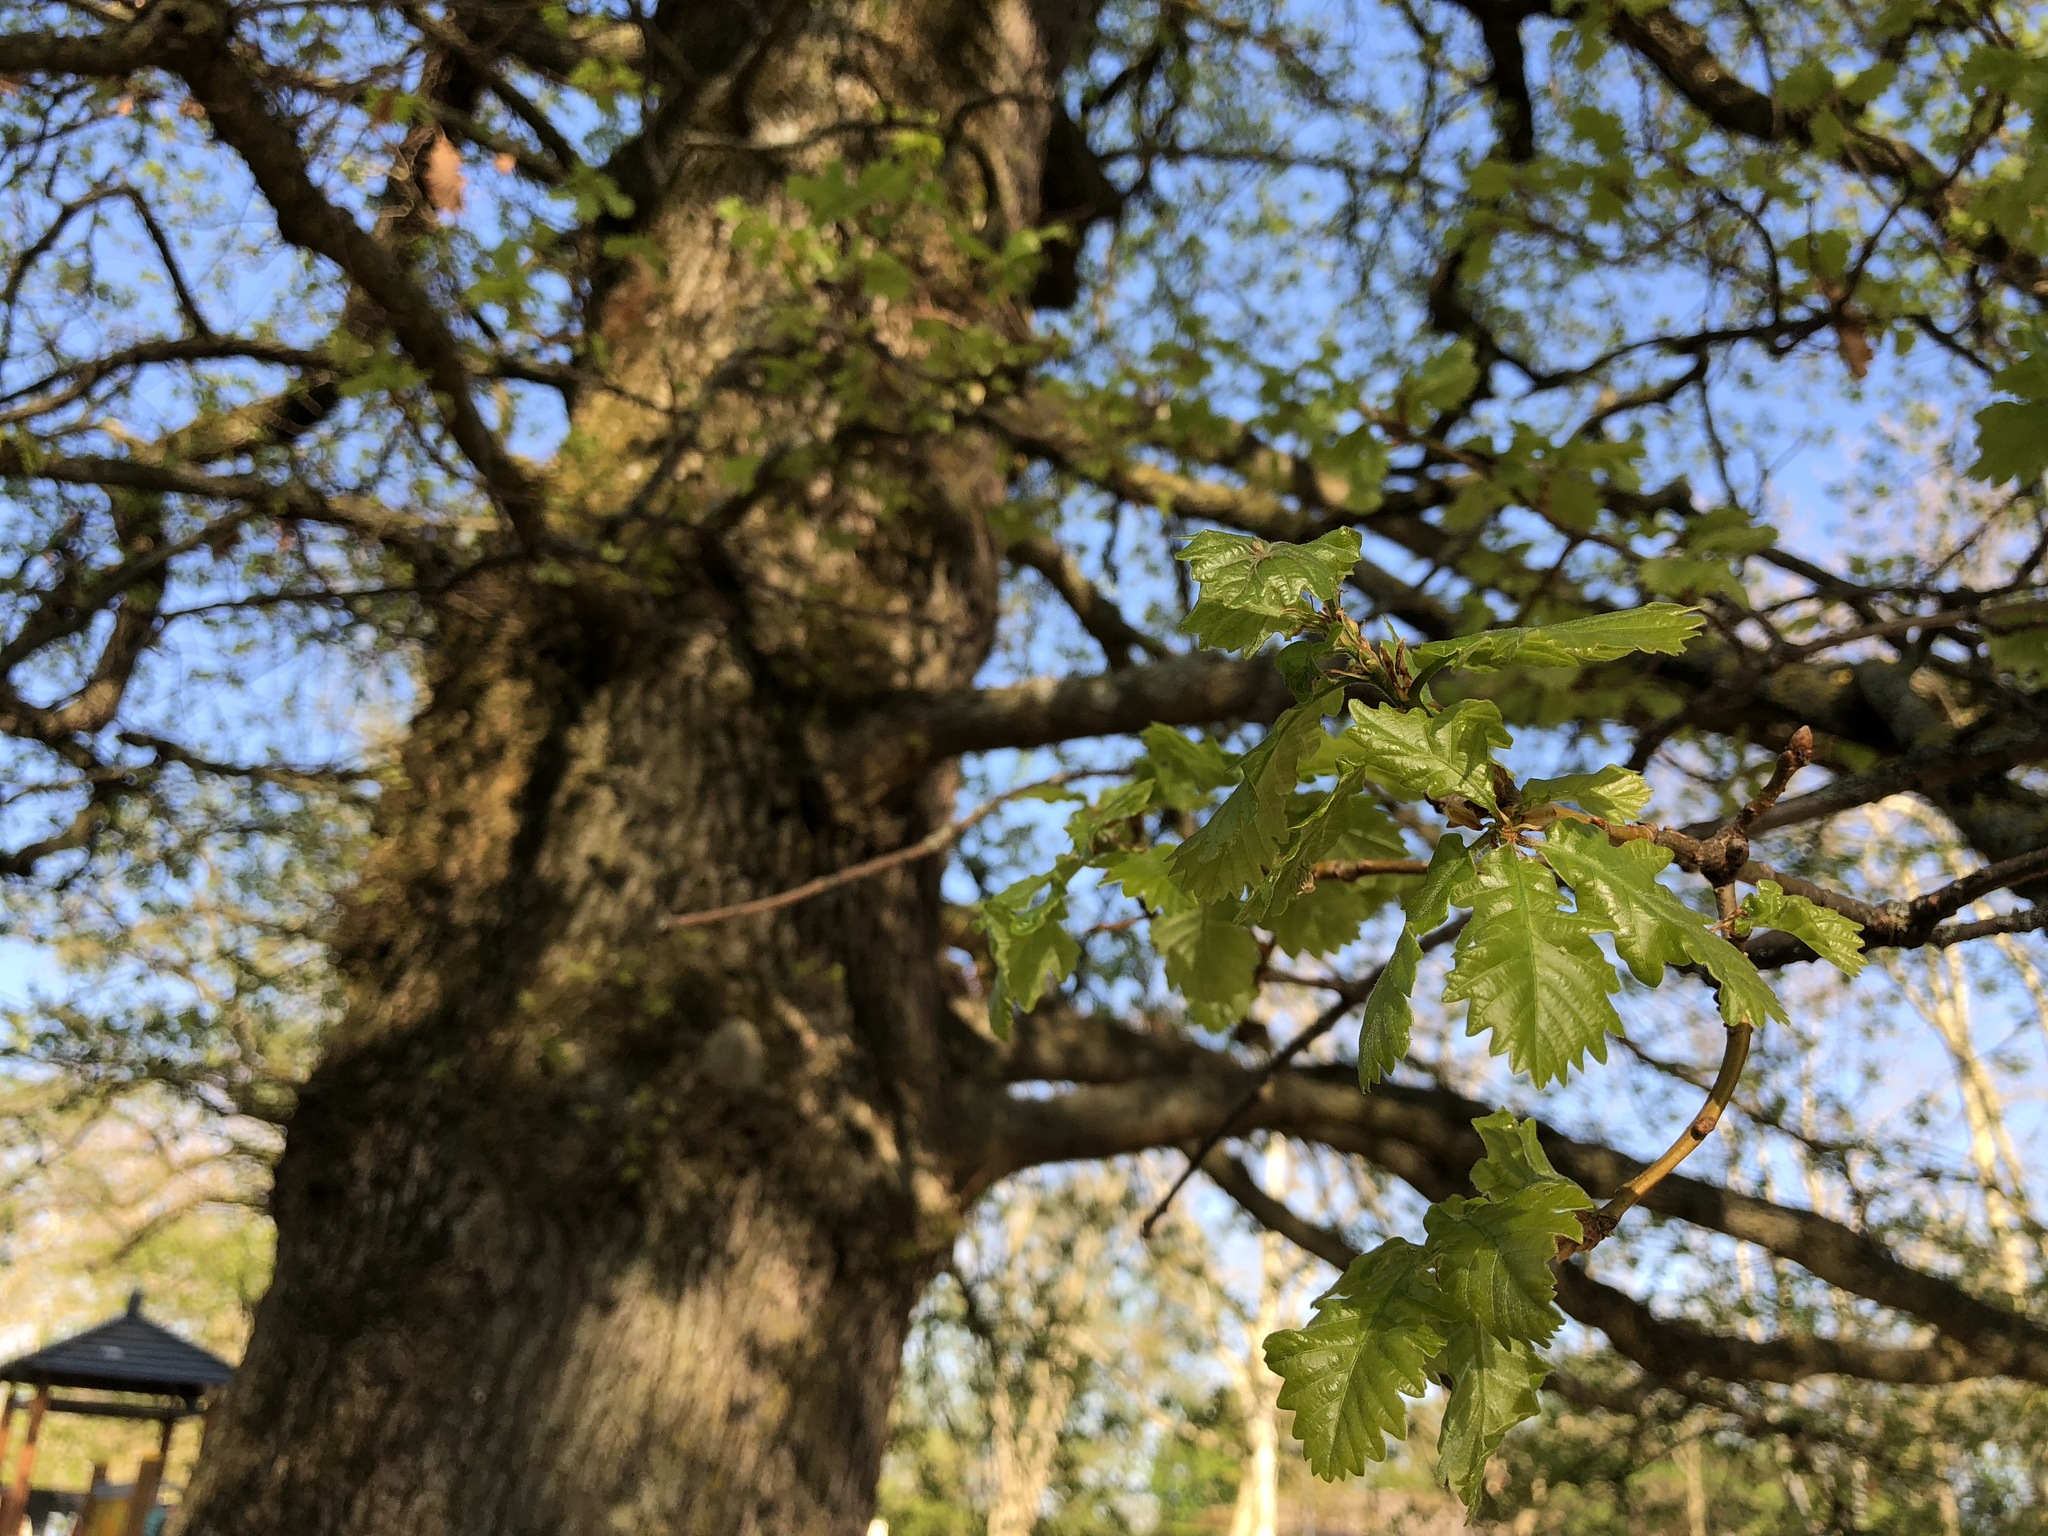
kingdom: Plantae
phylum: Tracheophyta
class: Magnoliopsida
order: Fagales
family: Fagaceae
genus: Quercus
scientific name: Quercus robur
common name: Pedunculate oak
